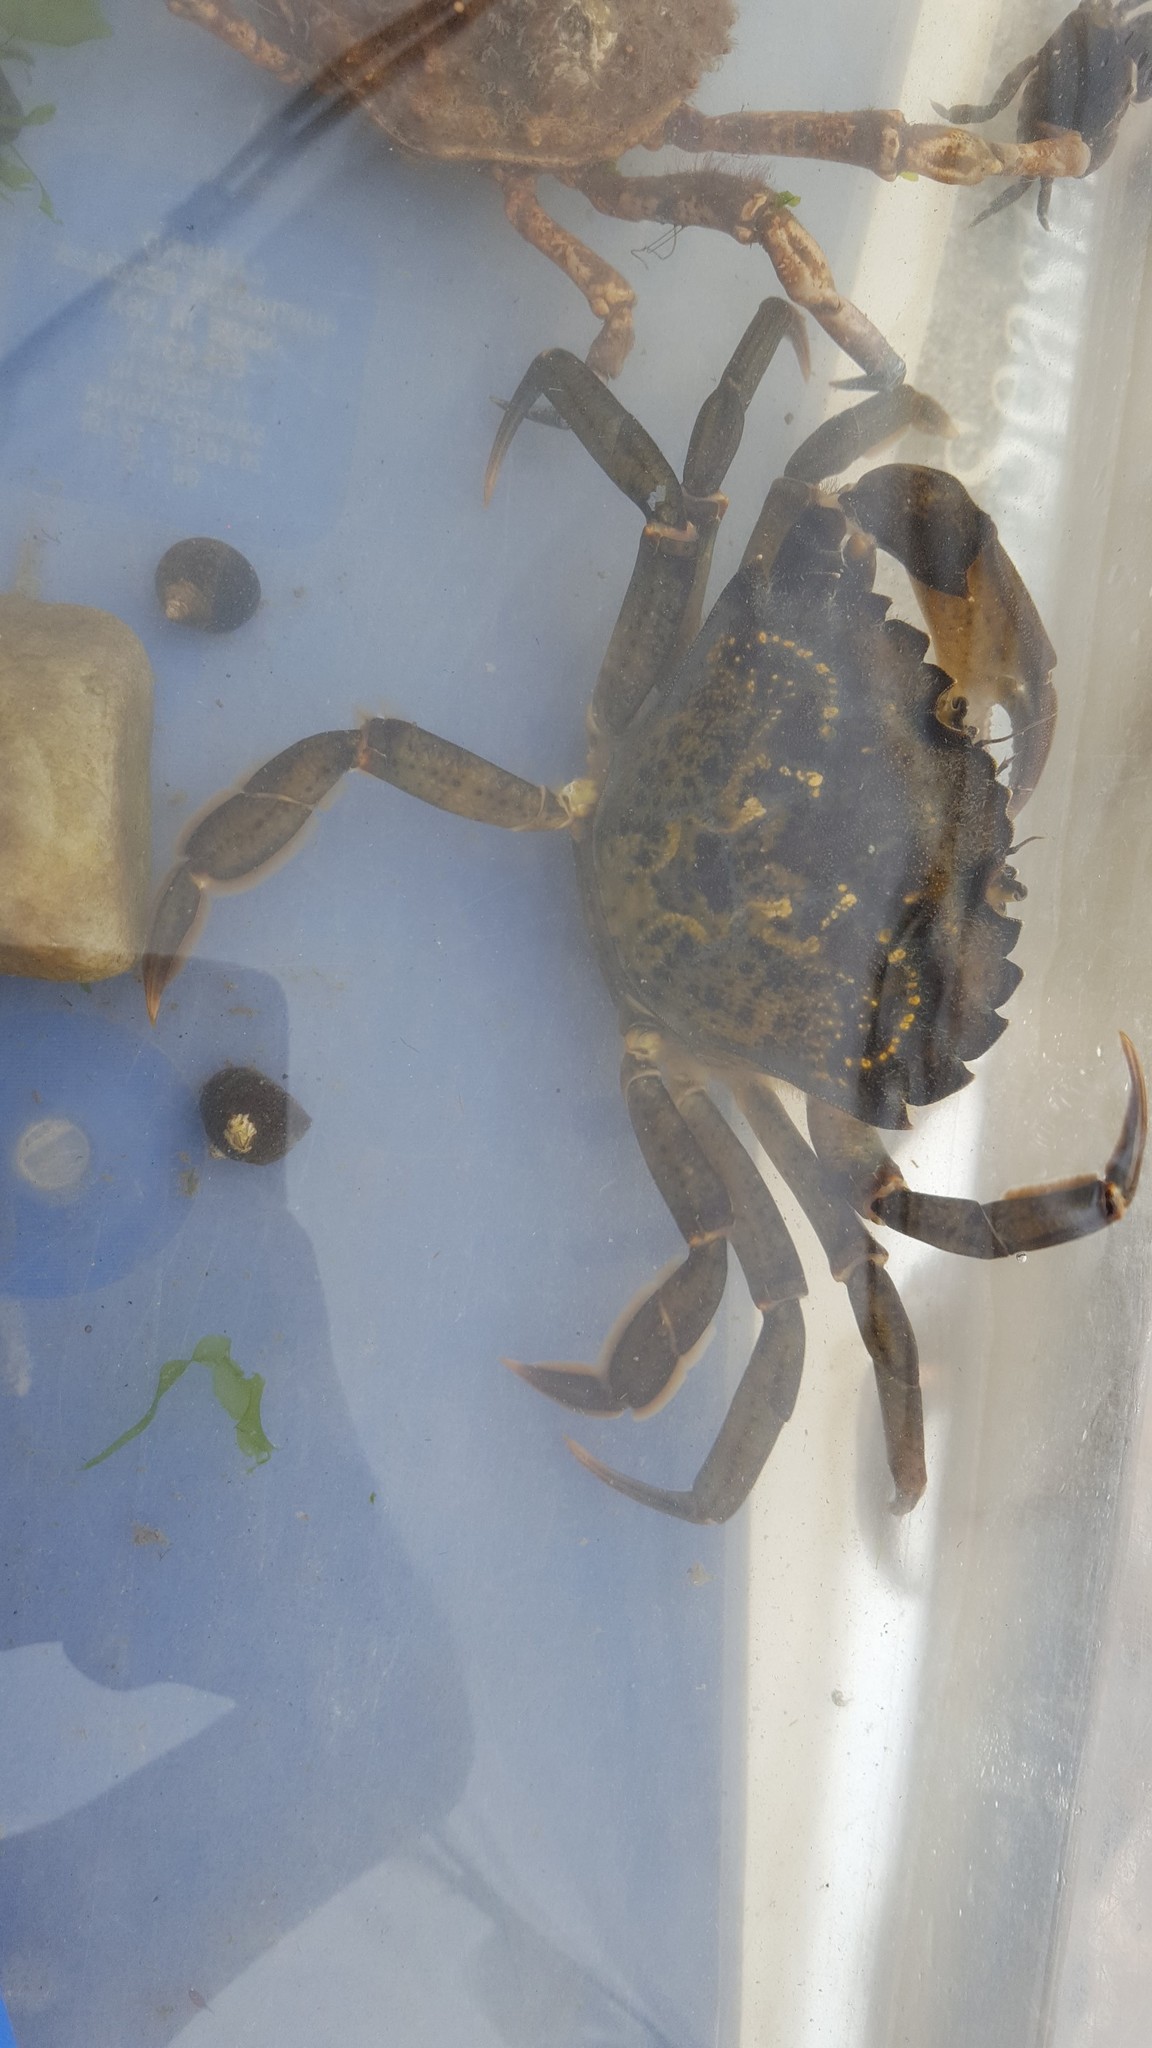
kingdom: Animalia
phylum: Arthropoda
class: Malacostraca
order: Decapoda
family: Carcinidae
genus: Carcinus
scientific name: Carcinus maenas
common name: European green crab
